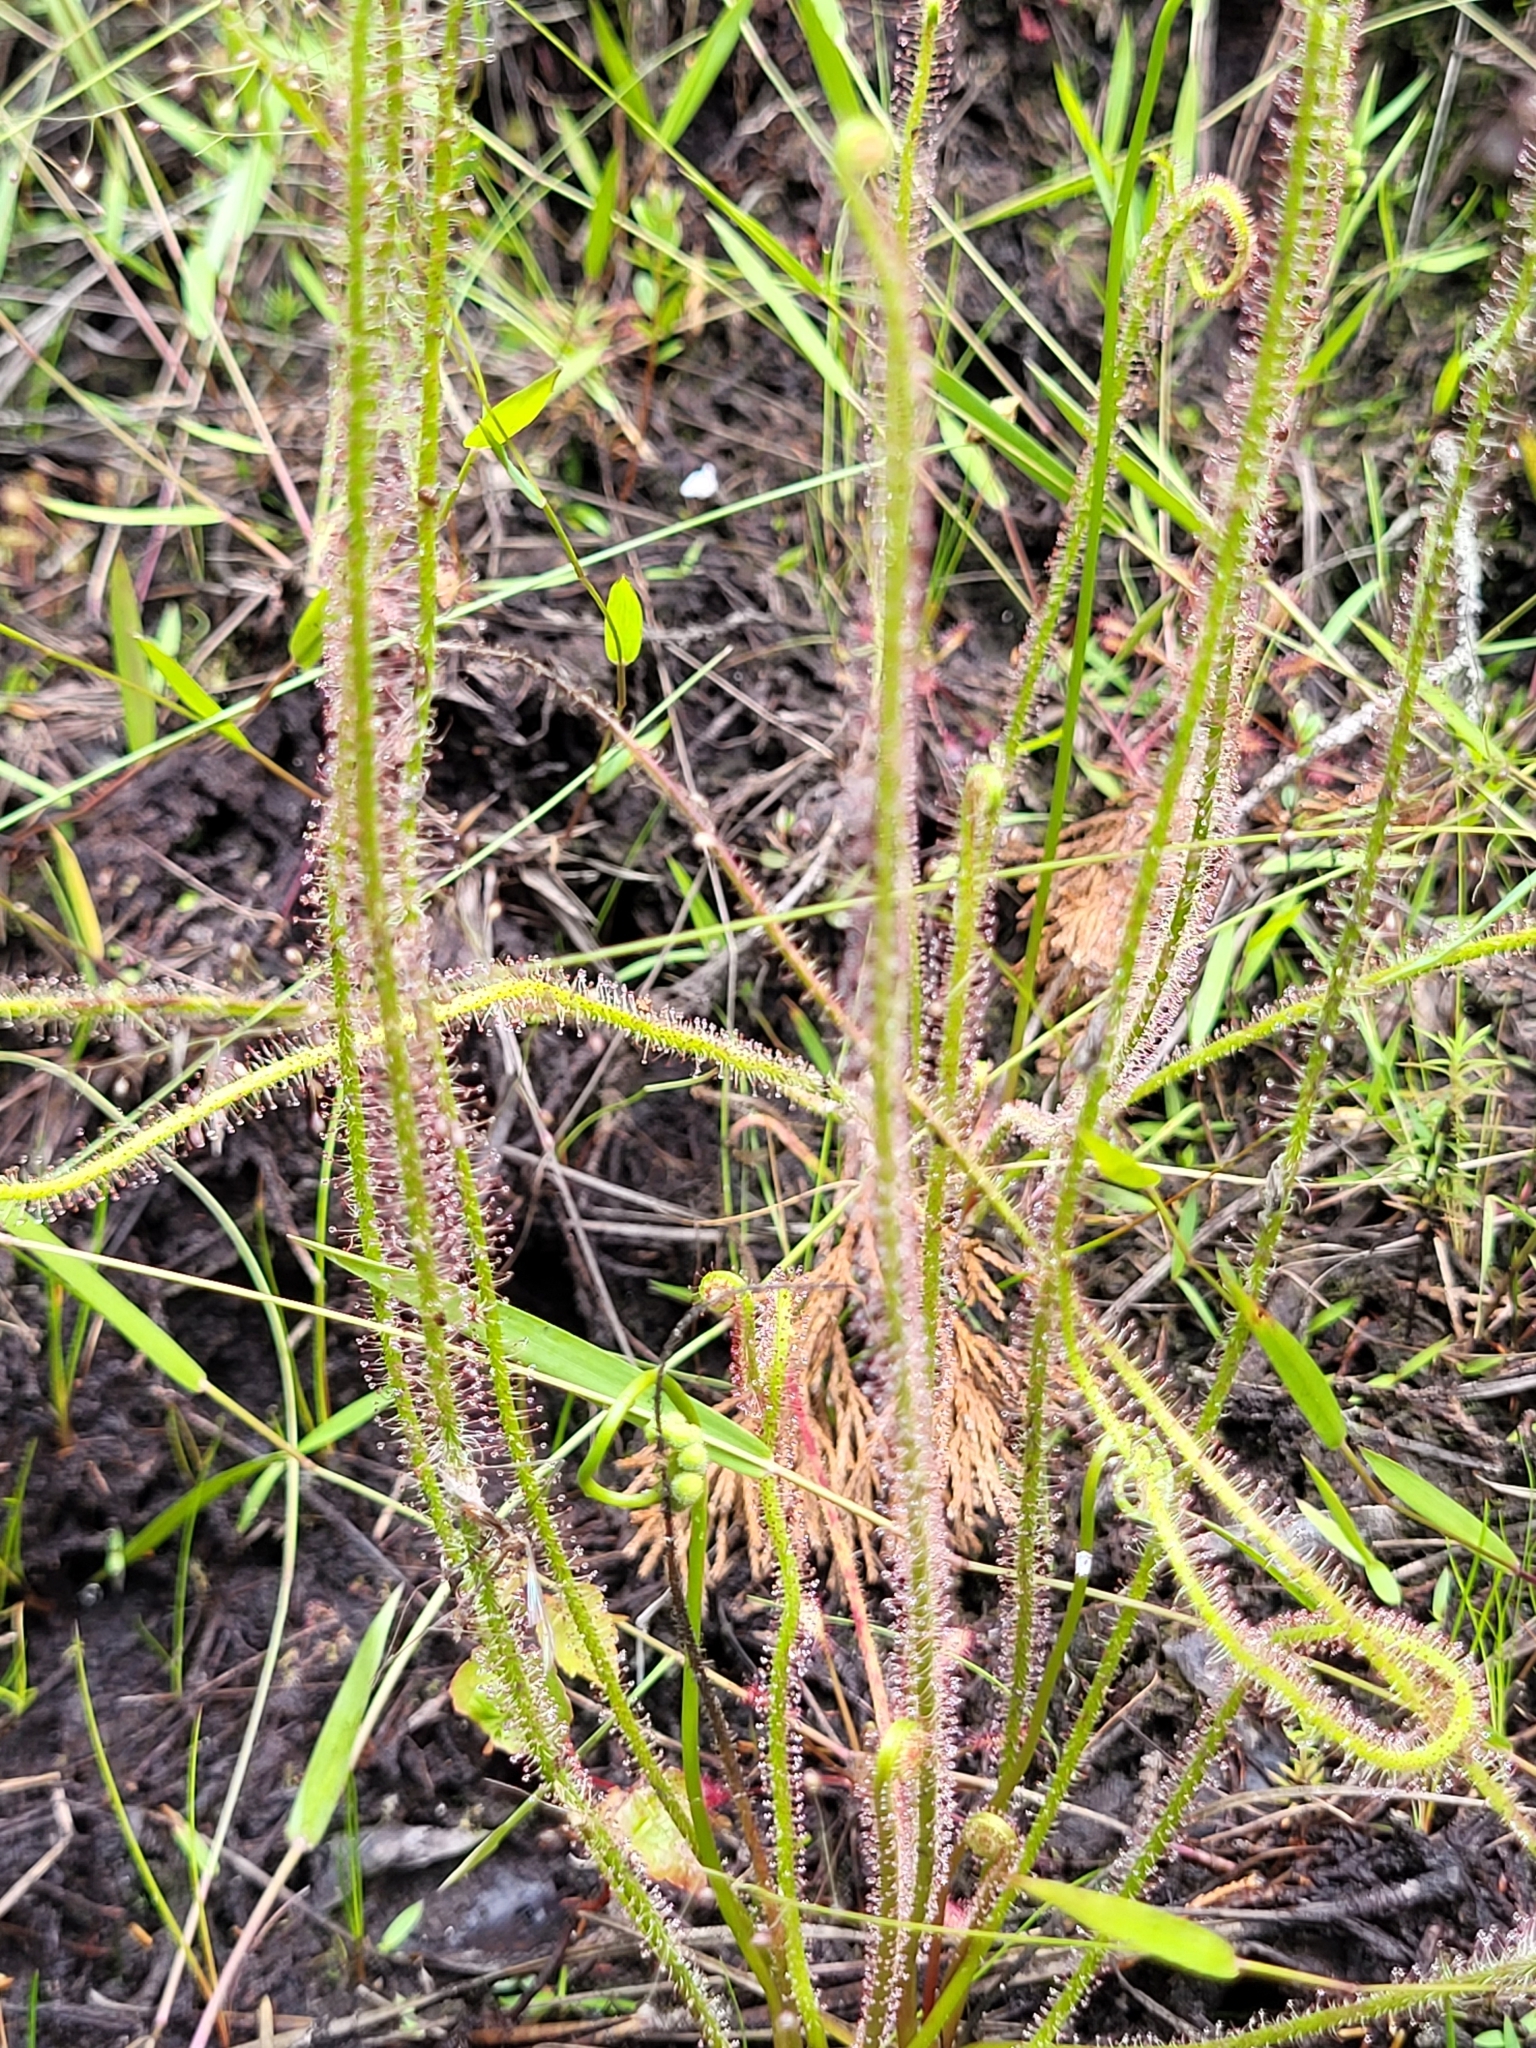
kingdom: Plantae
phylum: Tracheophyta
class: Magnoliopsida
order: Caryophyllales
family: Droseraceae
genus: Drosera
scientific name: Drosera filiformis
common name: Dew-thread
